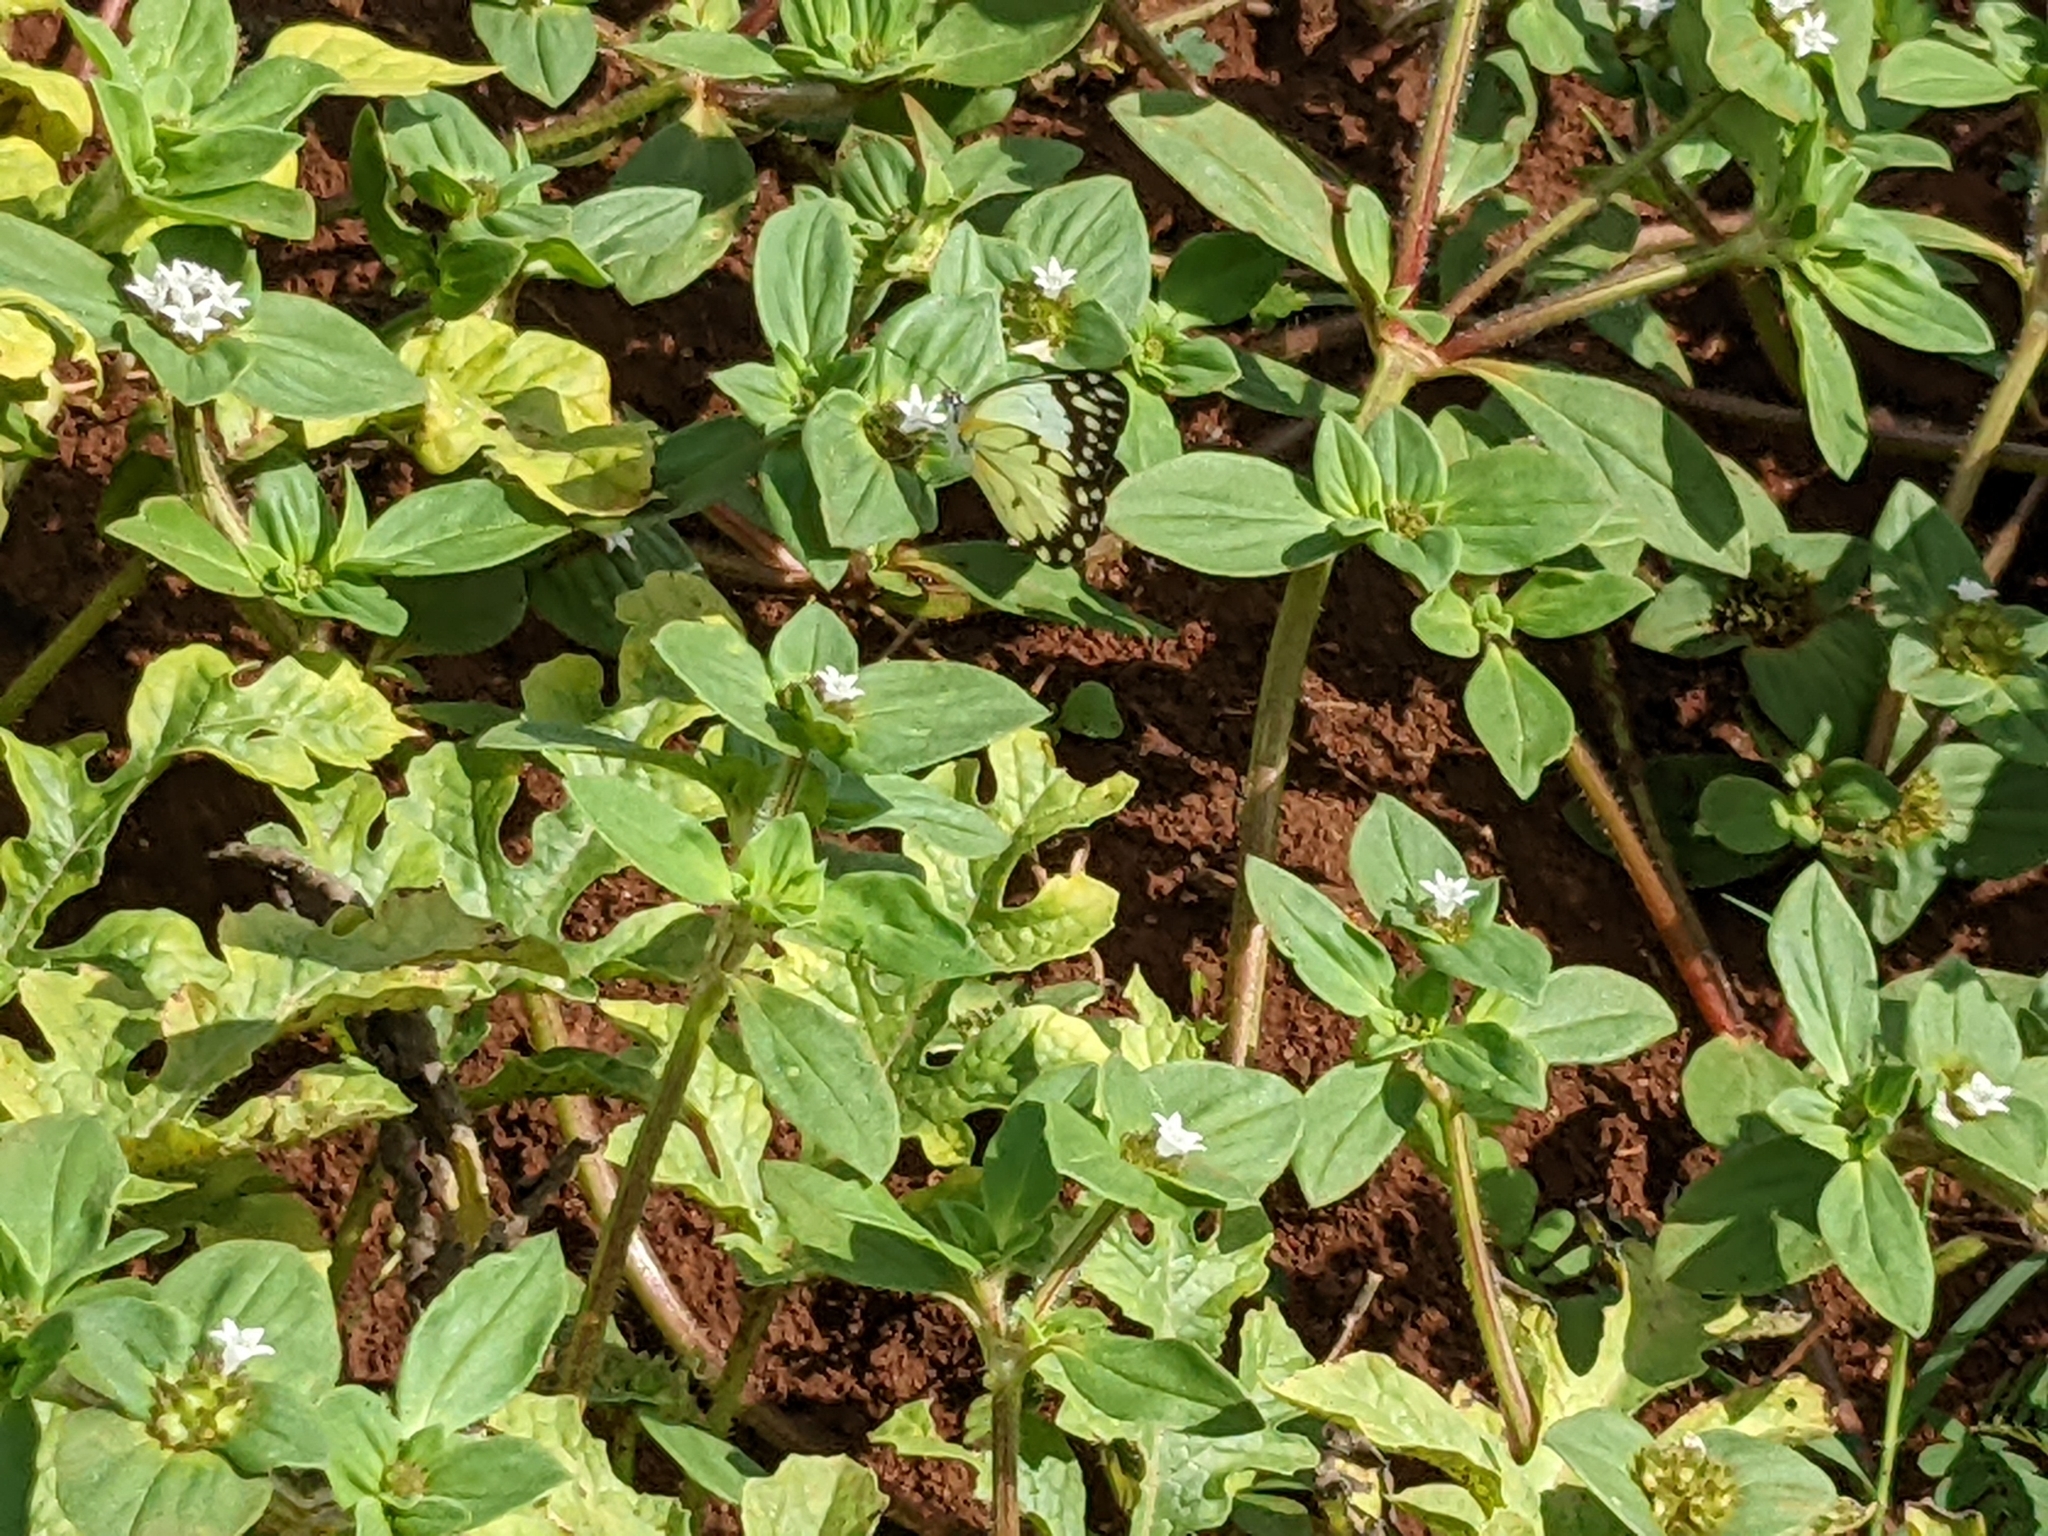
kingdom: Animalia
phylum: Arthropoda
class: Insecta
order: Lepidoptera
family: Pieridae
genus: Belenois
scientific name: Belenois creona
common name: African caper white
